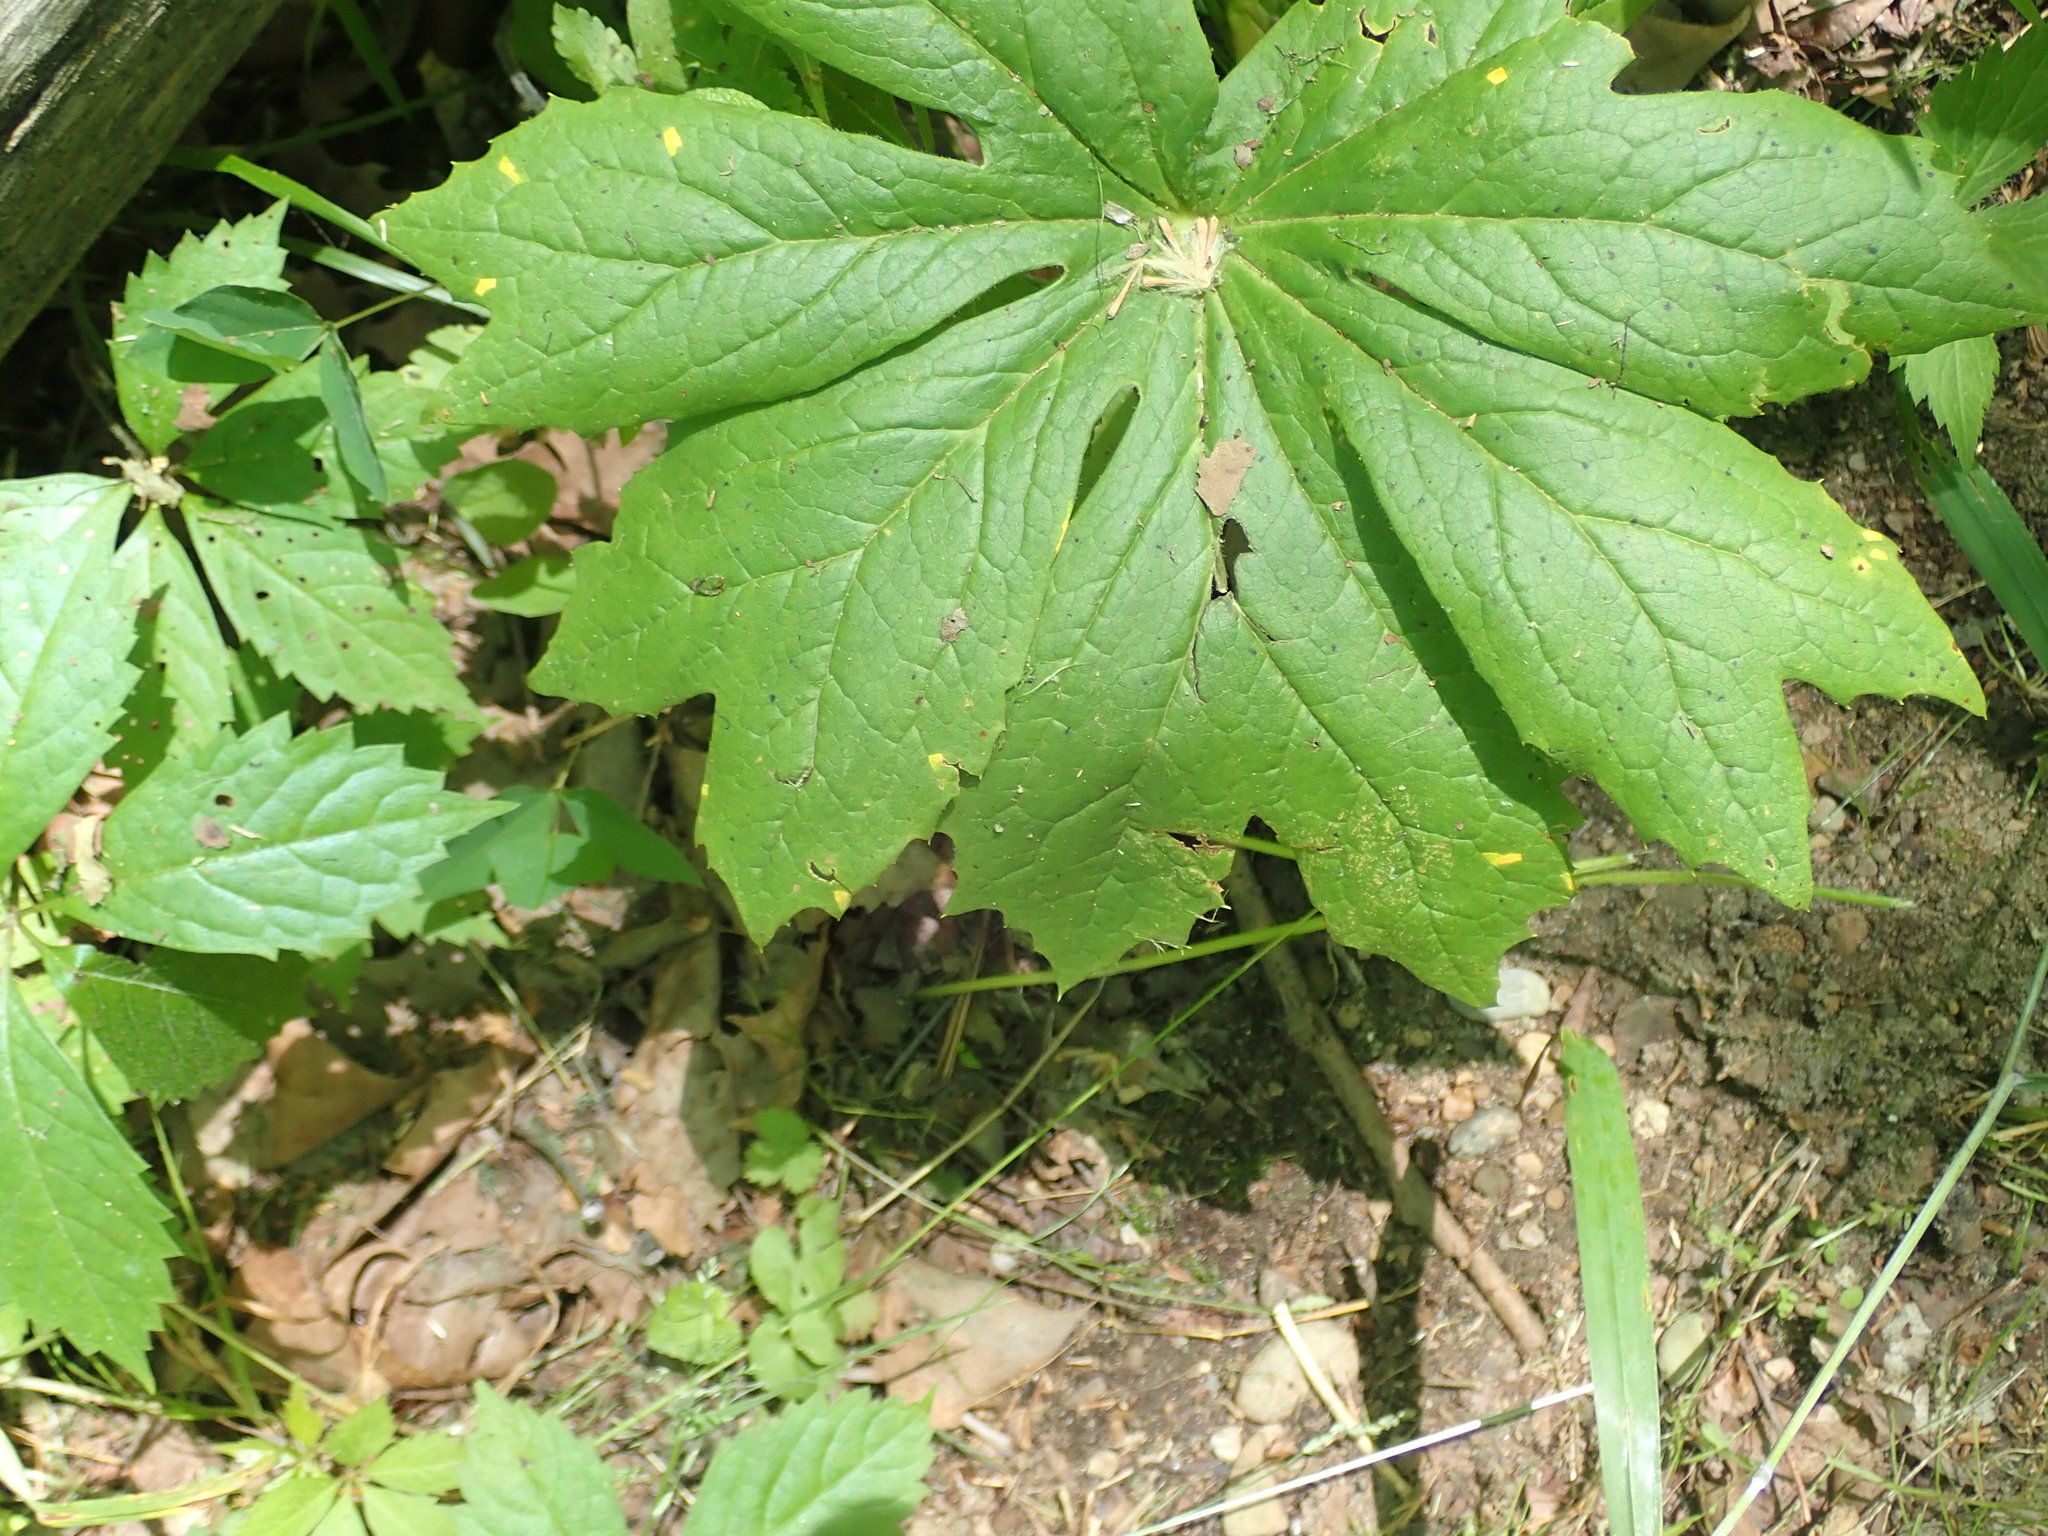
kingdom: Plantae
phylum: Tracheophyta
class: Magnoliopsida
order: Ranunculales
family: Berberidaceae
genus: Podophyllum
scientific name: Podophyllum peltatum
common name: Wild mandrake
